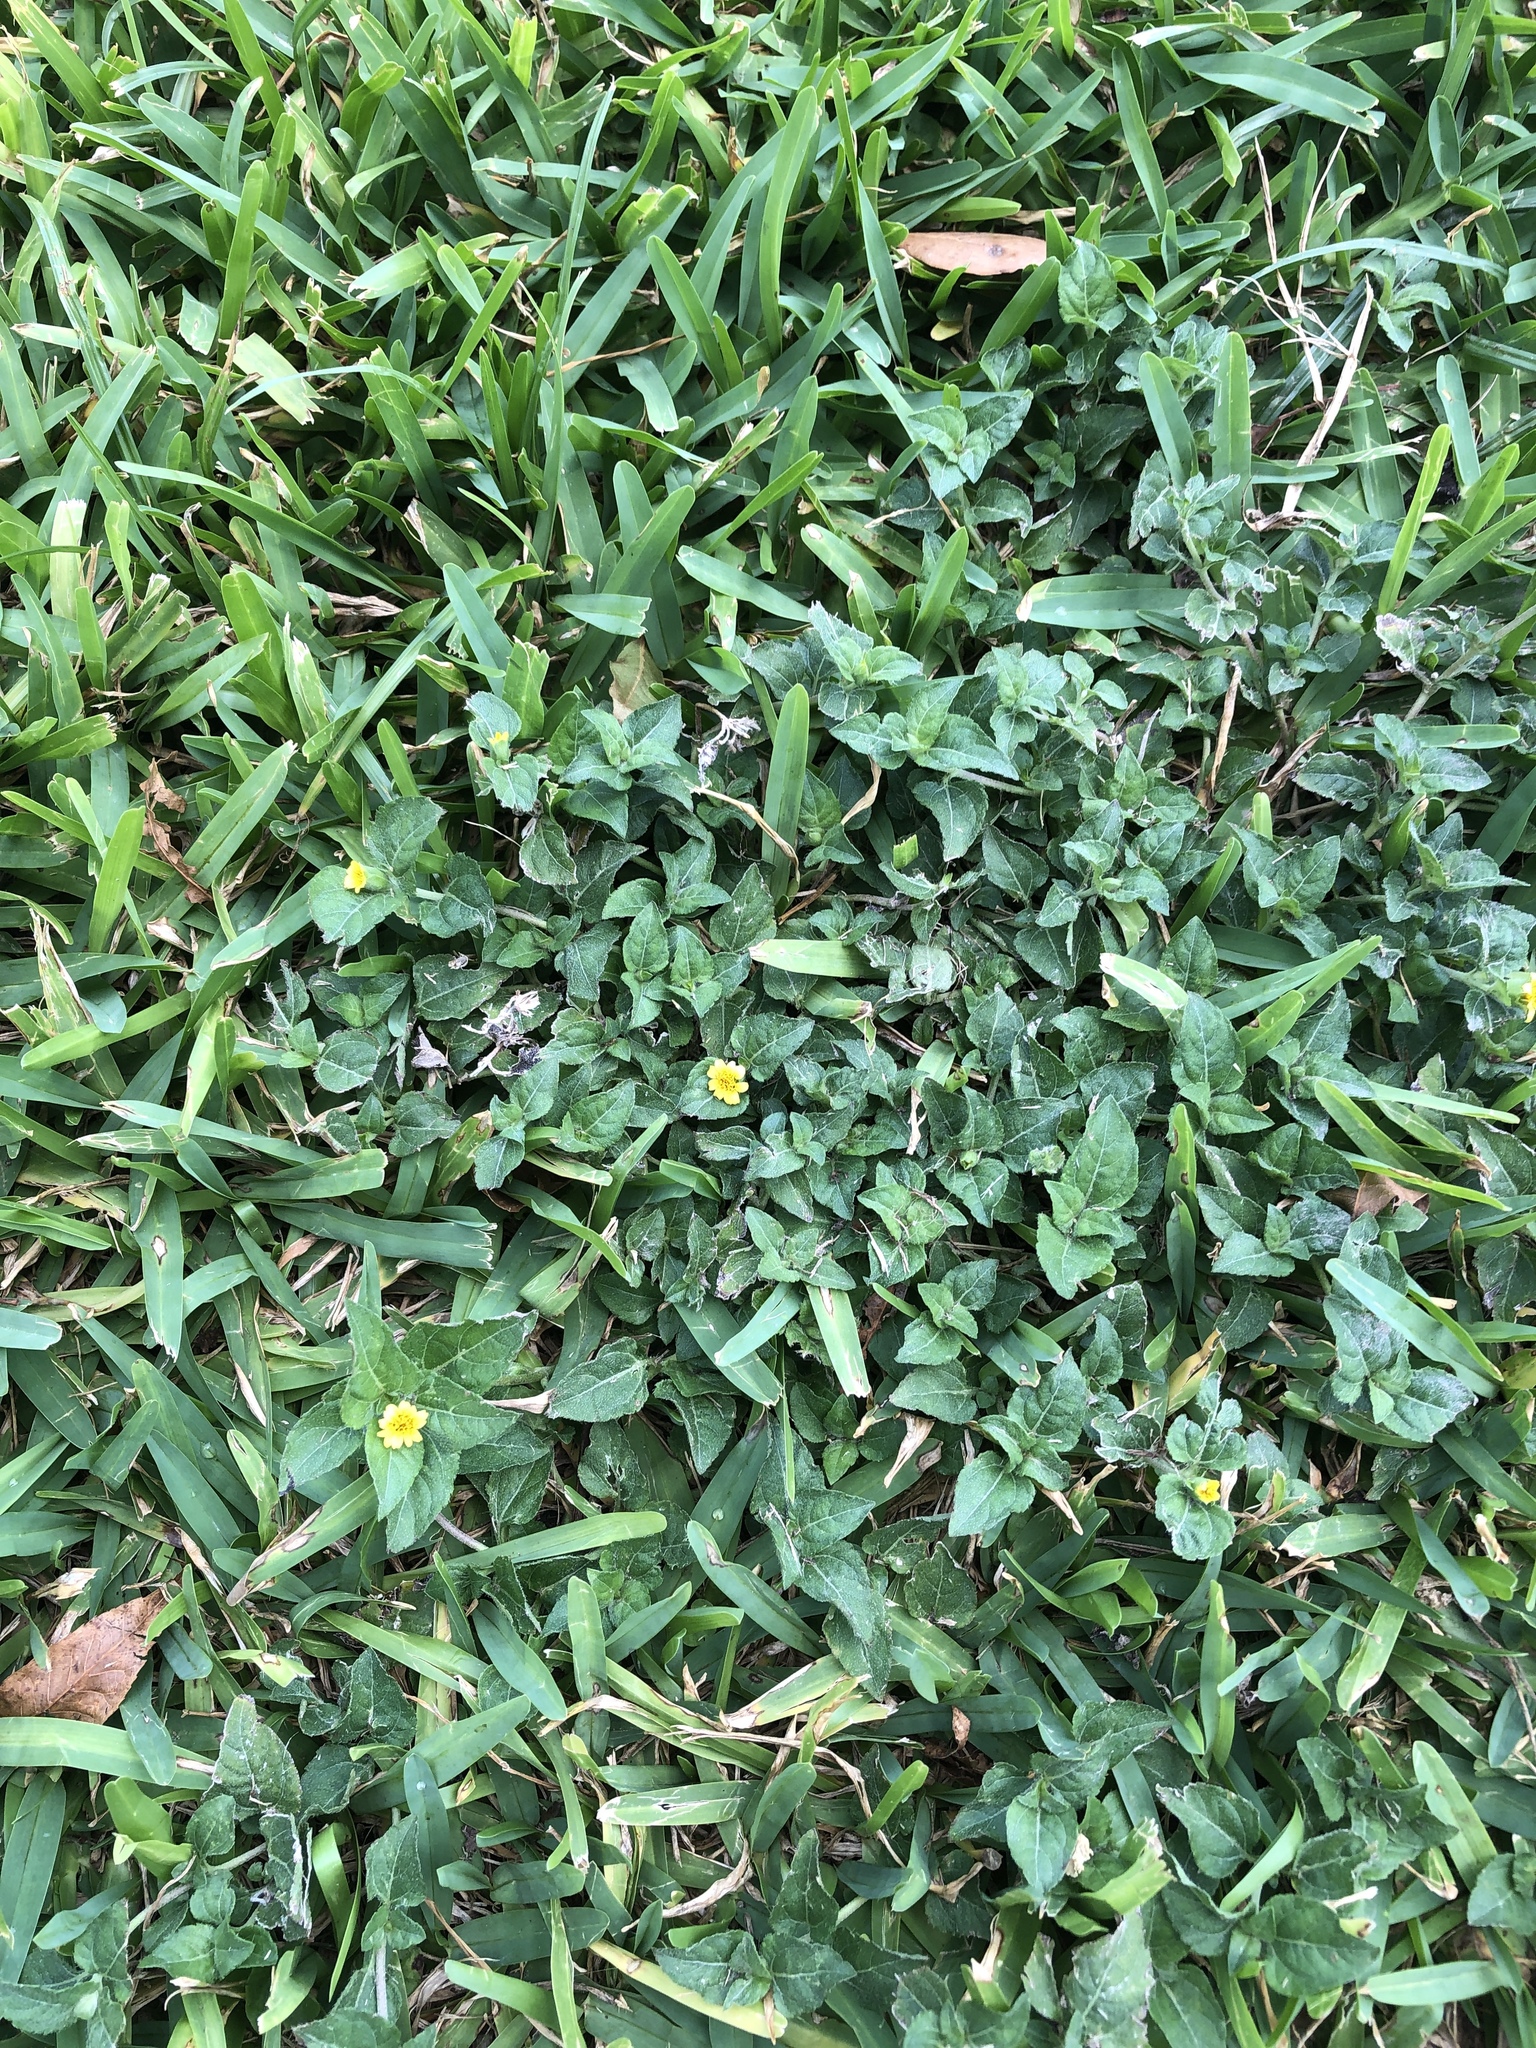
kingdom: Plantae
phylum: Tracheophyta
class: Magnoliopsida
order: Asterales
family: Asteraceae
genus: Calyptocarpus
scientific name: Calyptocarpus vialis
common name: Straggler daisy
